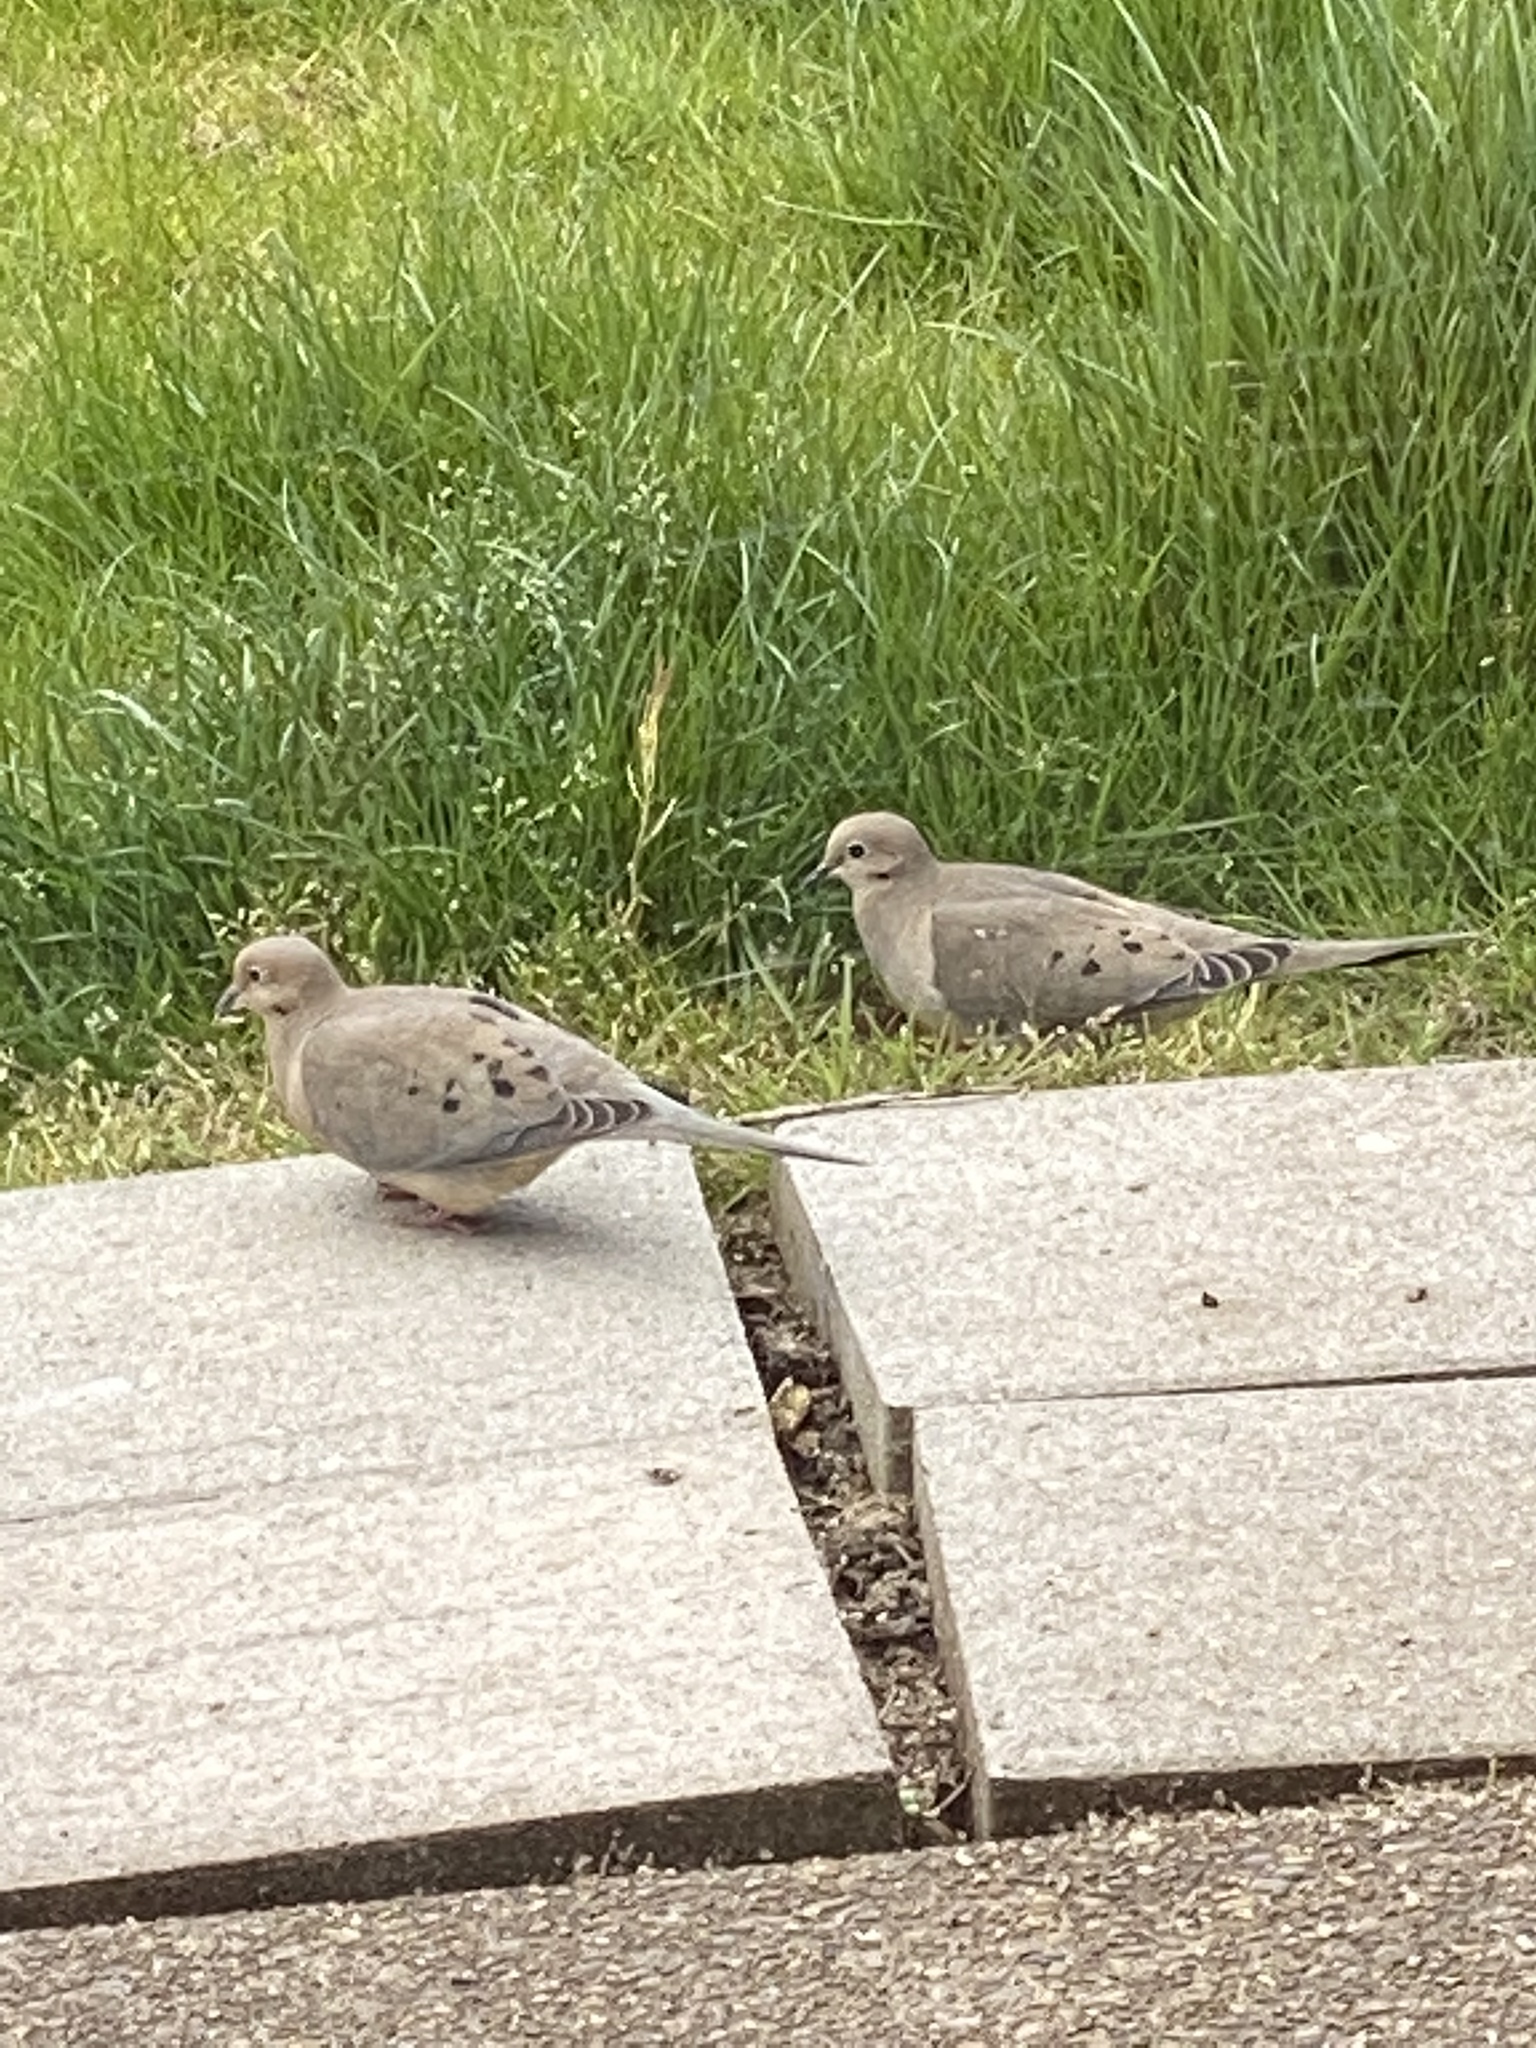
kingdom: Animalia
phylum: Chordata
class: Aves
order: Columbiformes
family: Columbidae
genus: Zenaida
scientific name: Zenaida macroura
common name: Mourning dove
